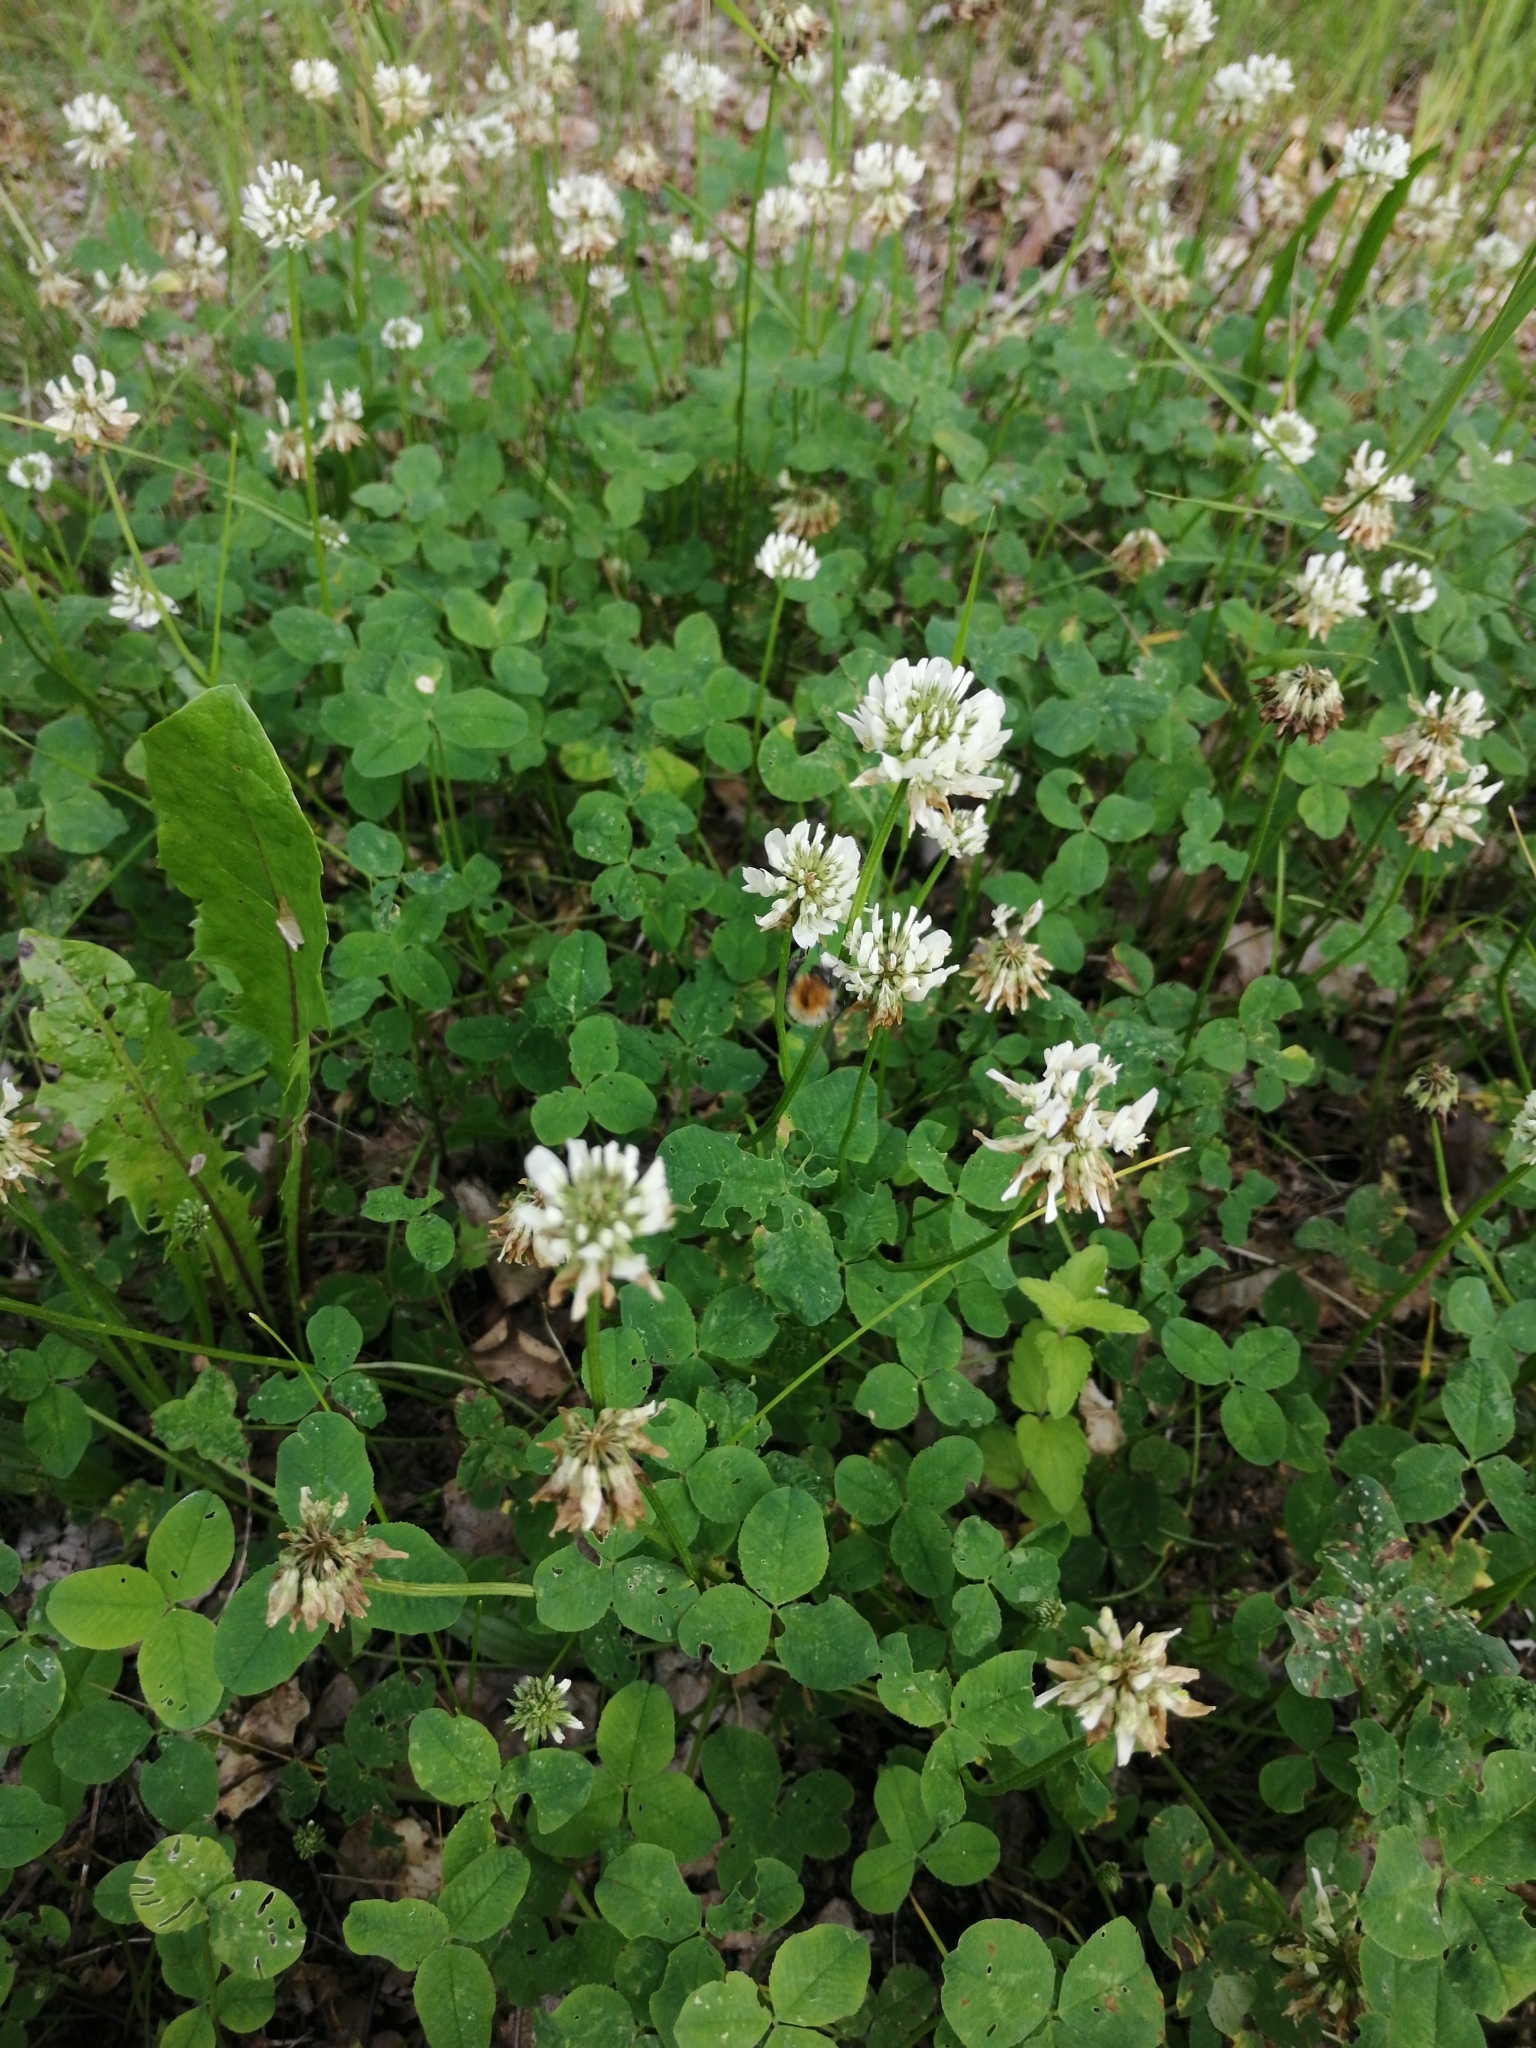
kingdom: Plantae
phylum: Tracheophyta
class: Magnoliopsida
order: Fabales
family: Fabaceae
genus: Trifolium
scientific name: Trifolium repens
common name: White clover
